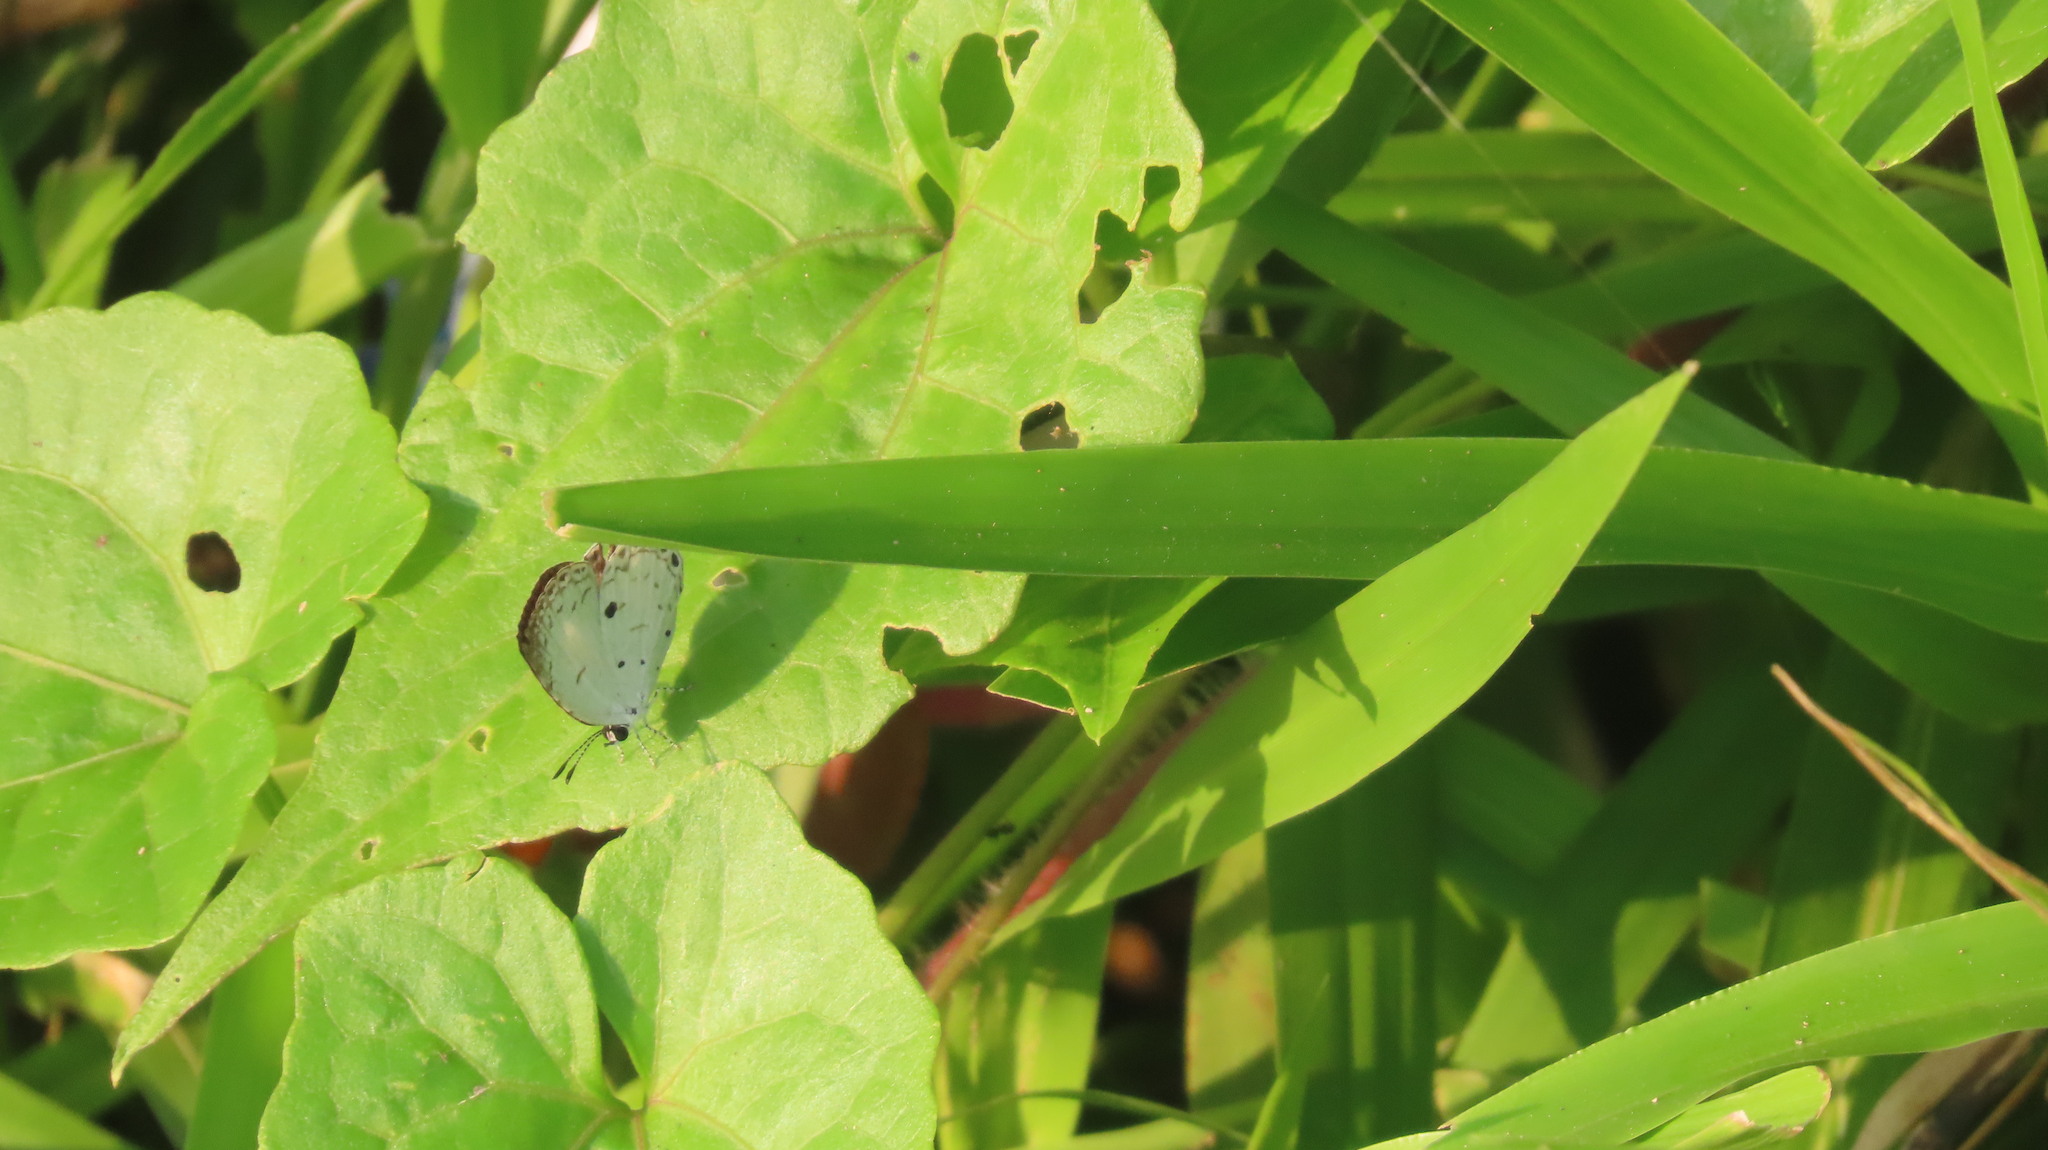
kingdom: Animalia
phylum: Arthropoda
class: Insecta
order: Lepidoptera
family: Lycaenidae
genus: Neopithecops
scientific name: Neopithecops zalmora
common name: Quaker
